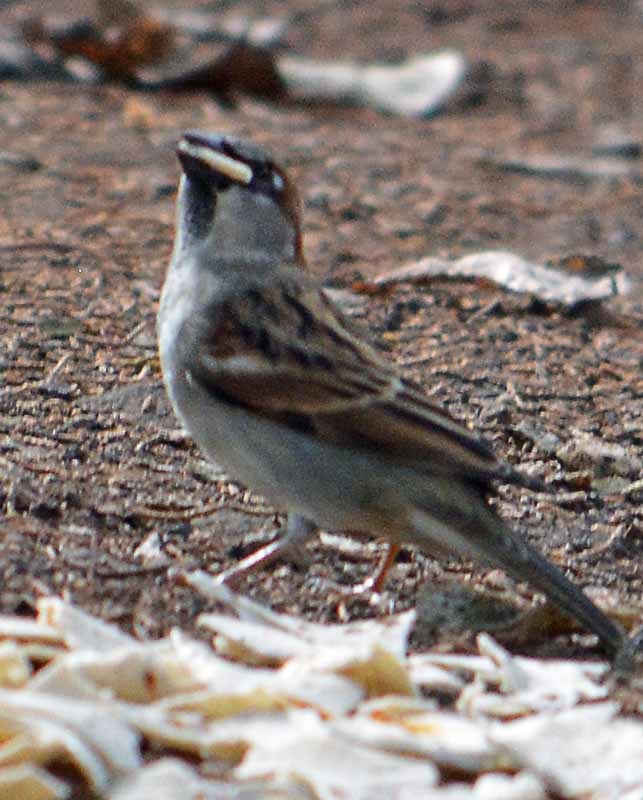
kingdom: Animalia
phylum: Chordata
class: Aves
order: Passeriformes
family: Passeridae
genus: Passer
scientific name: Passer domesticus
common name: House sparrow
